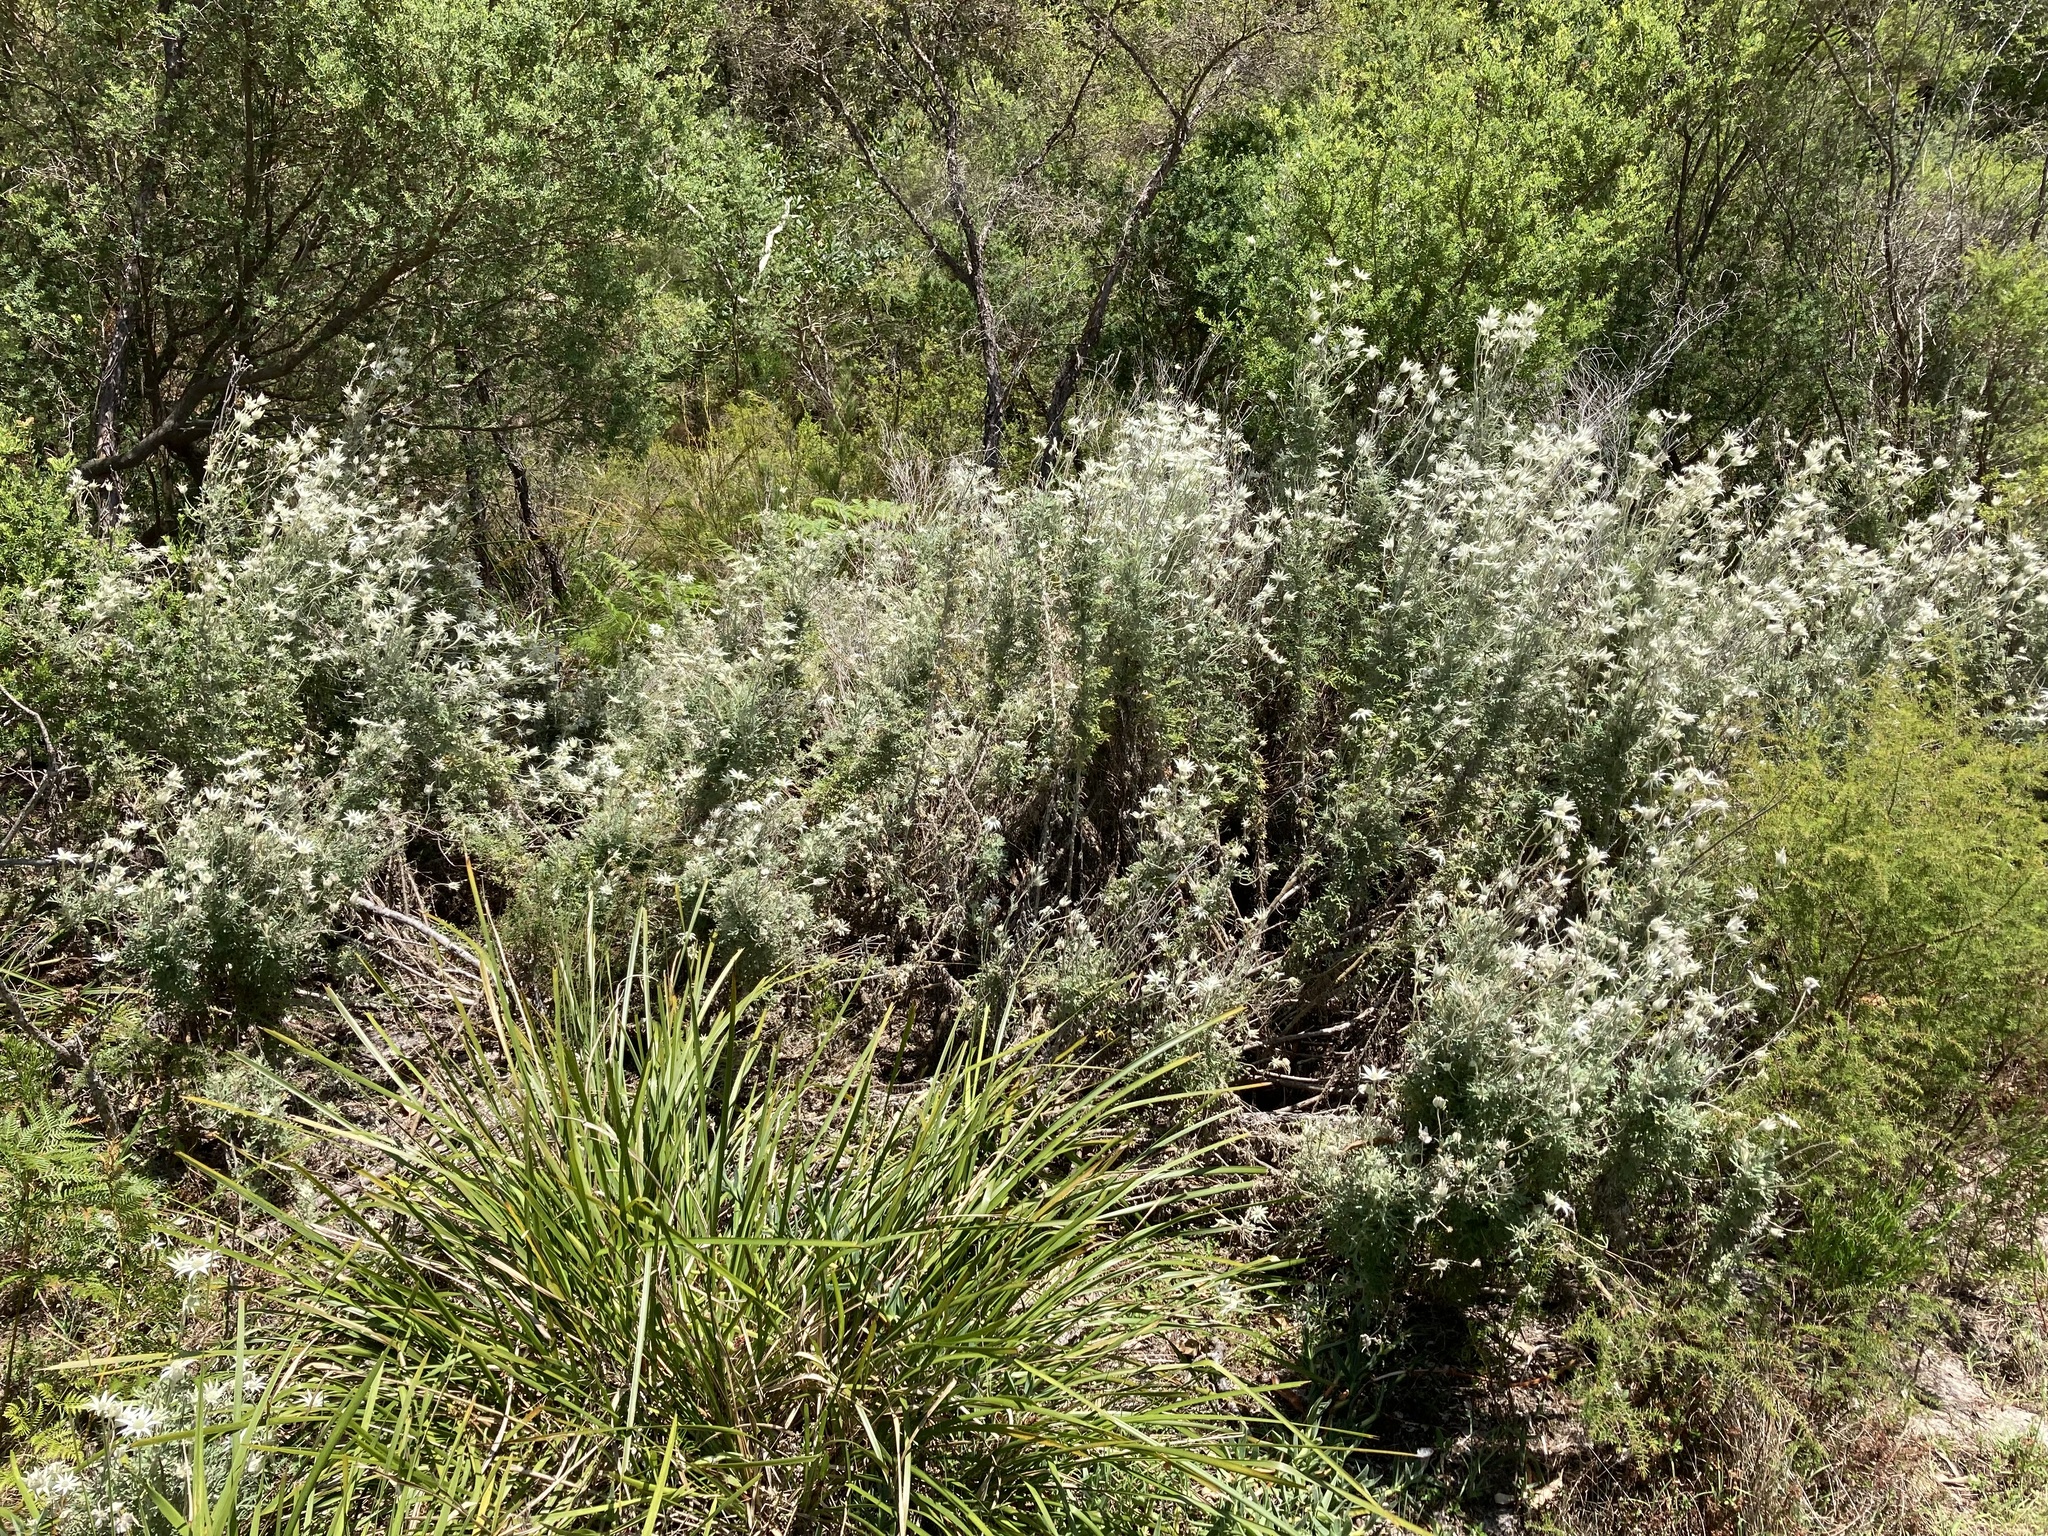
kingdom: Plantae
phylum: Tracheophyta
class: Magnoliopsida
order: Apiales
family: Apiaceae
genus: Actinotus
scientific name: Actinotus helianthi
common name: Flannel-flower
